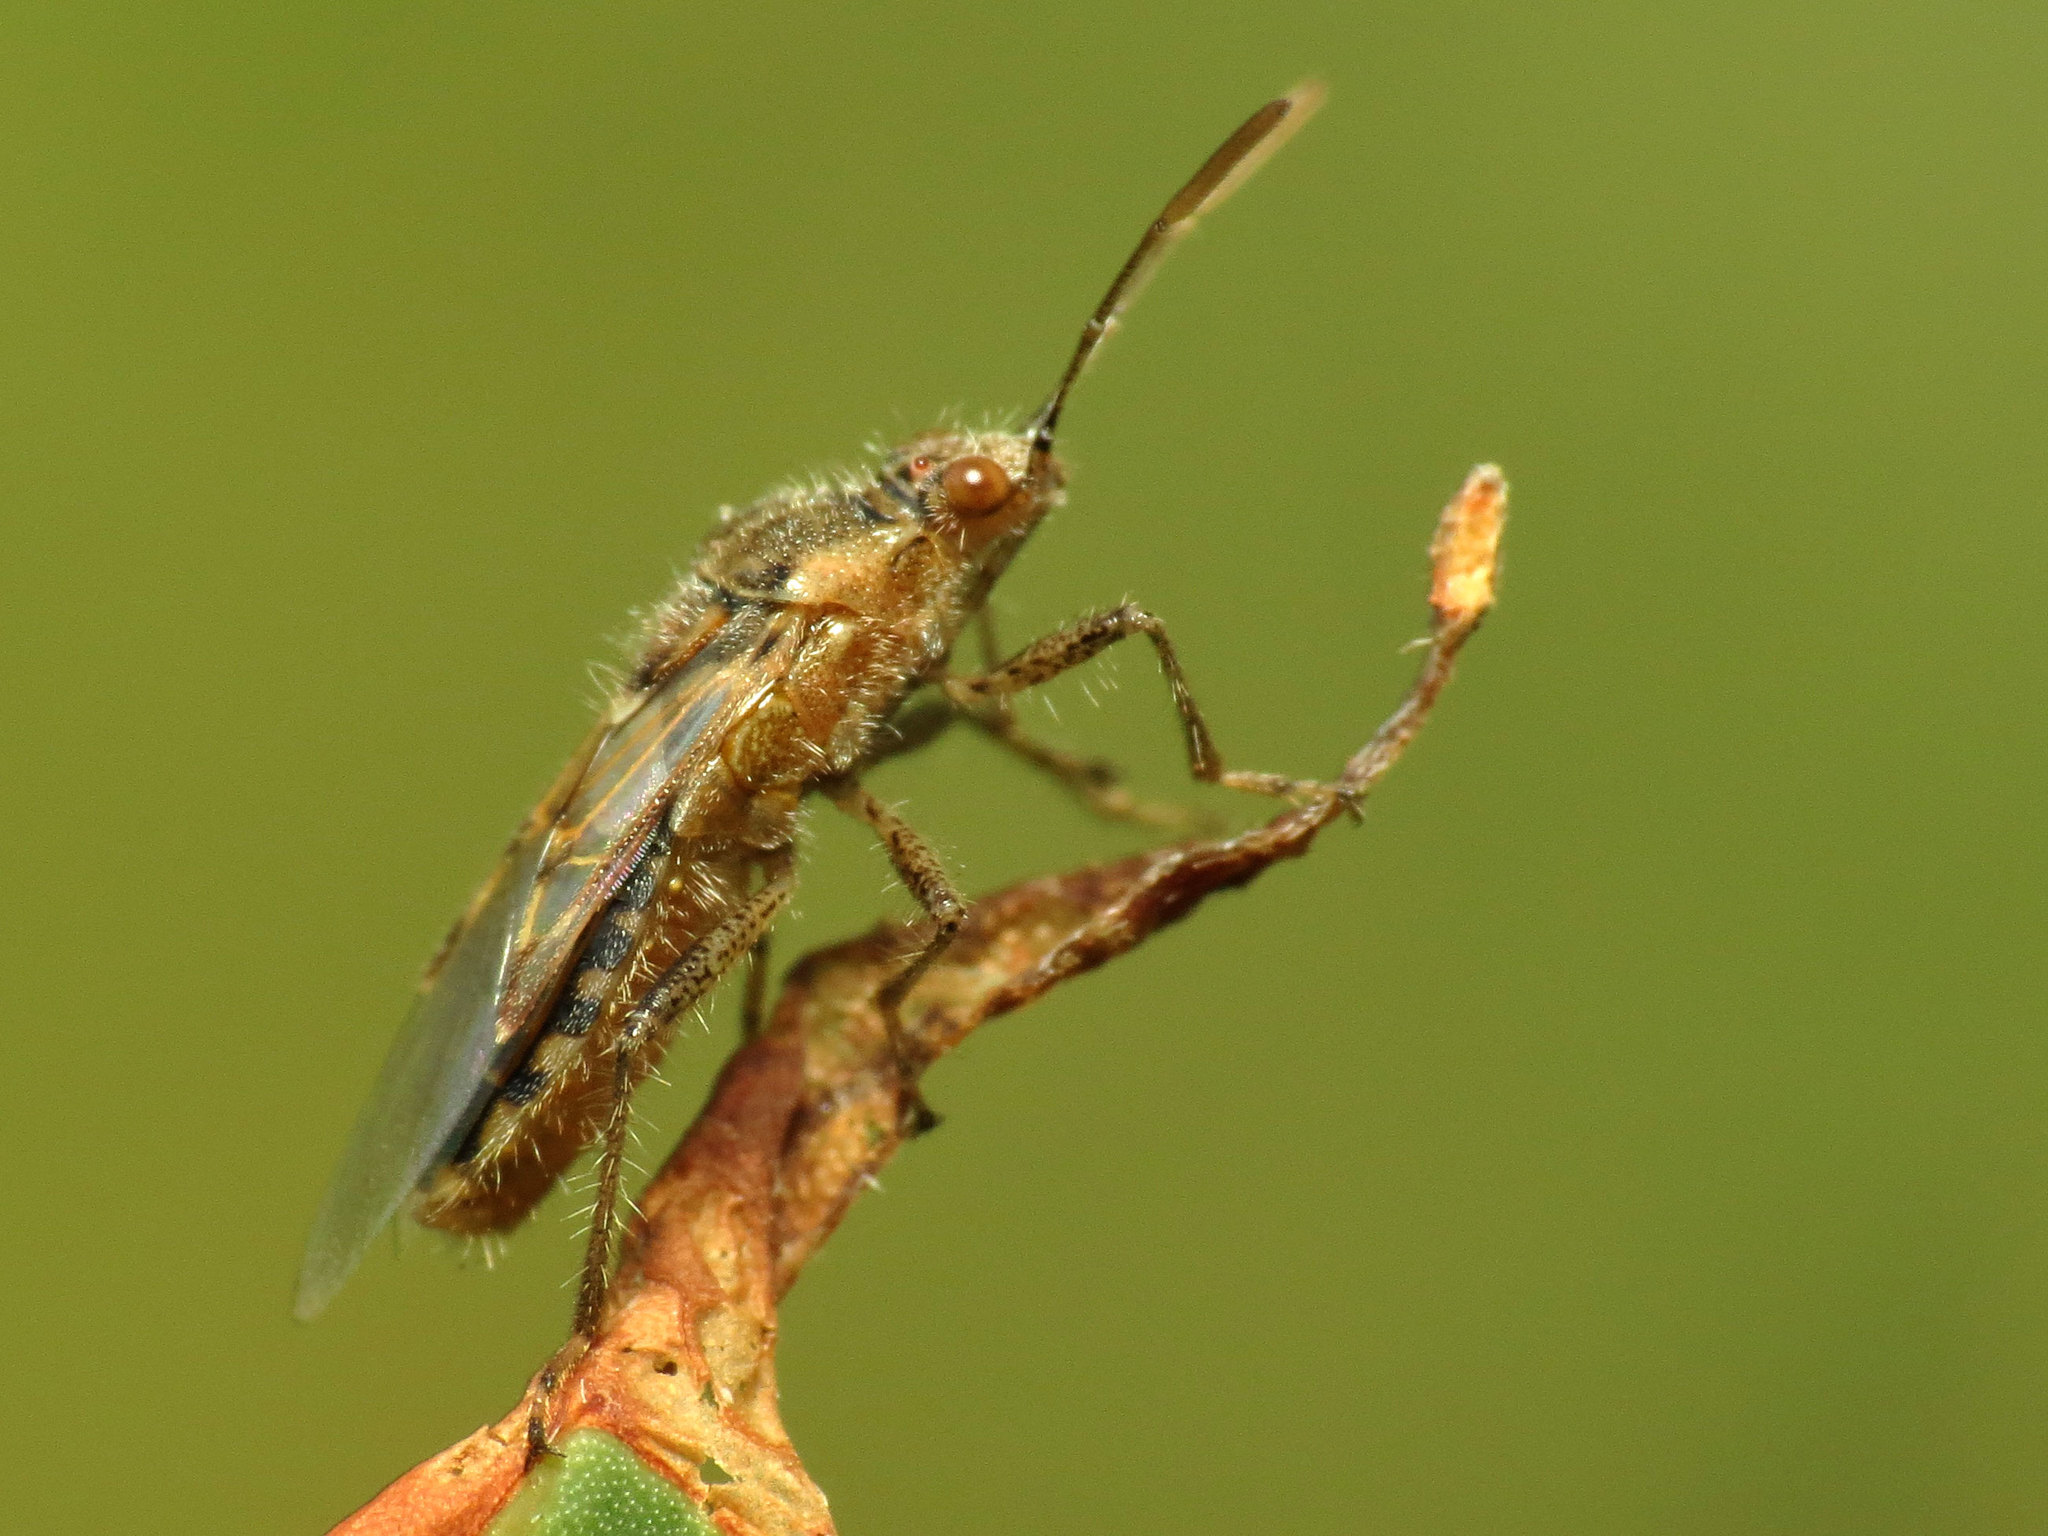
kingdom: Animalia
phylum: Arthropoda
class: Insecta
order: Hemiptera
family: Rhopalidae
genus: Liorhyssus
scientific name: Liorhyssus hyalinus
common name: Scentless plant bug
